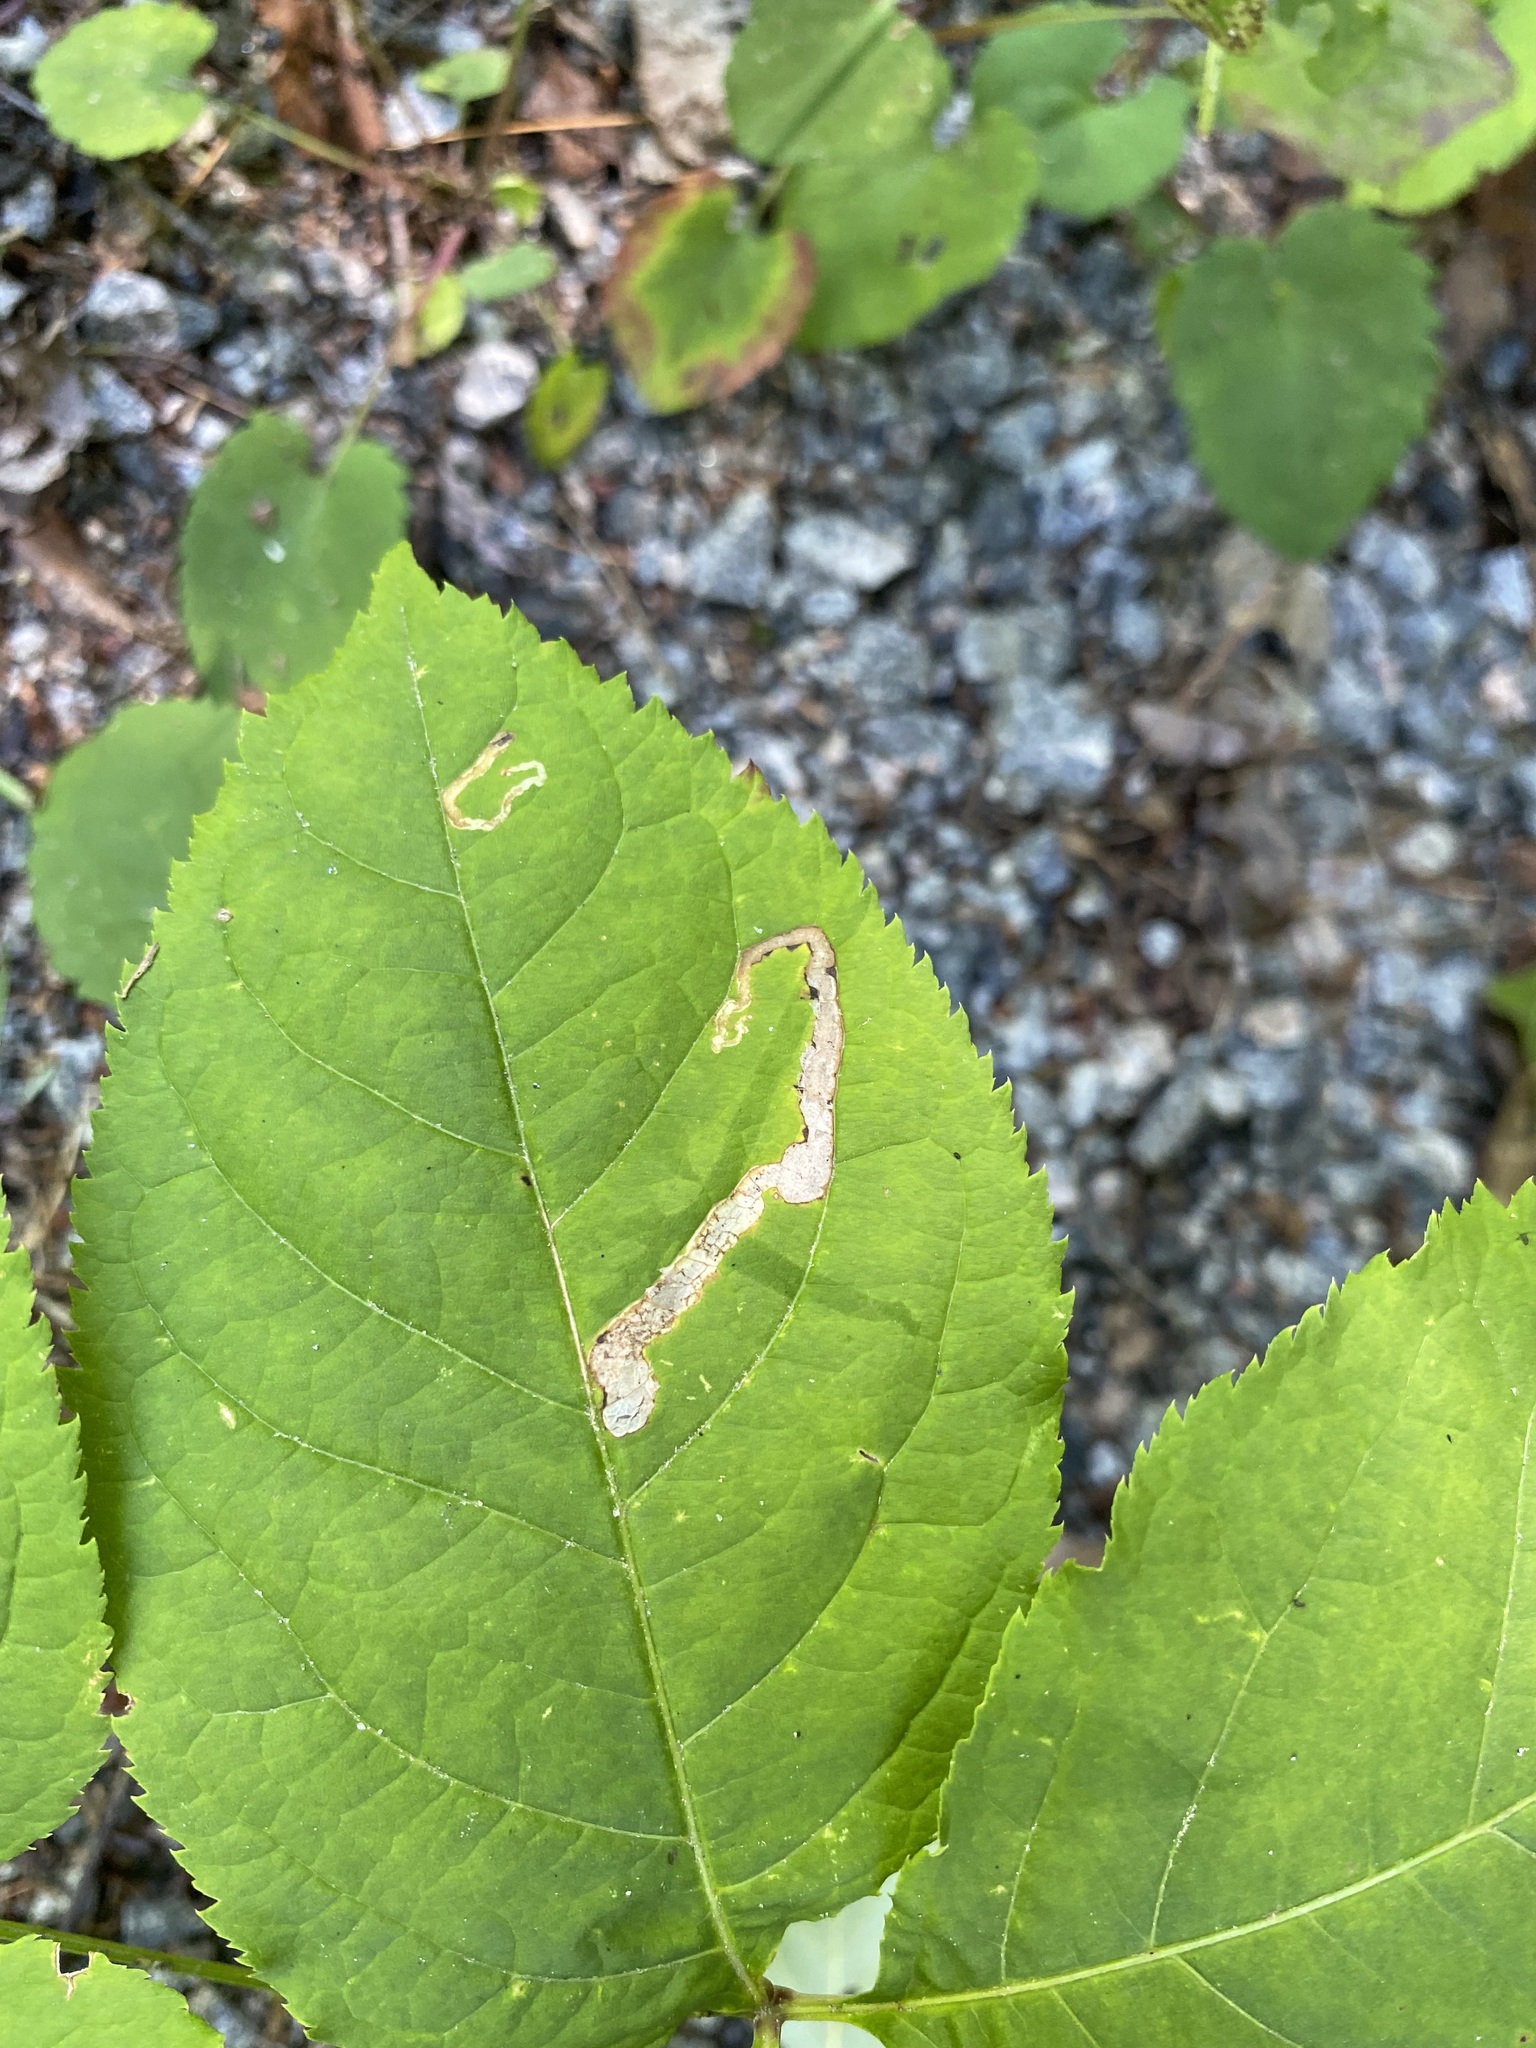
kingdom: Animalia
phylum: Arthropoda
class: Insecta
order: Diptera
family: Agromyzidae
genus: Phytomyza
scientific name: Phytomyza aralivora
